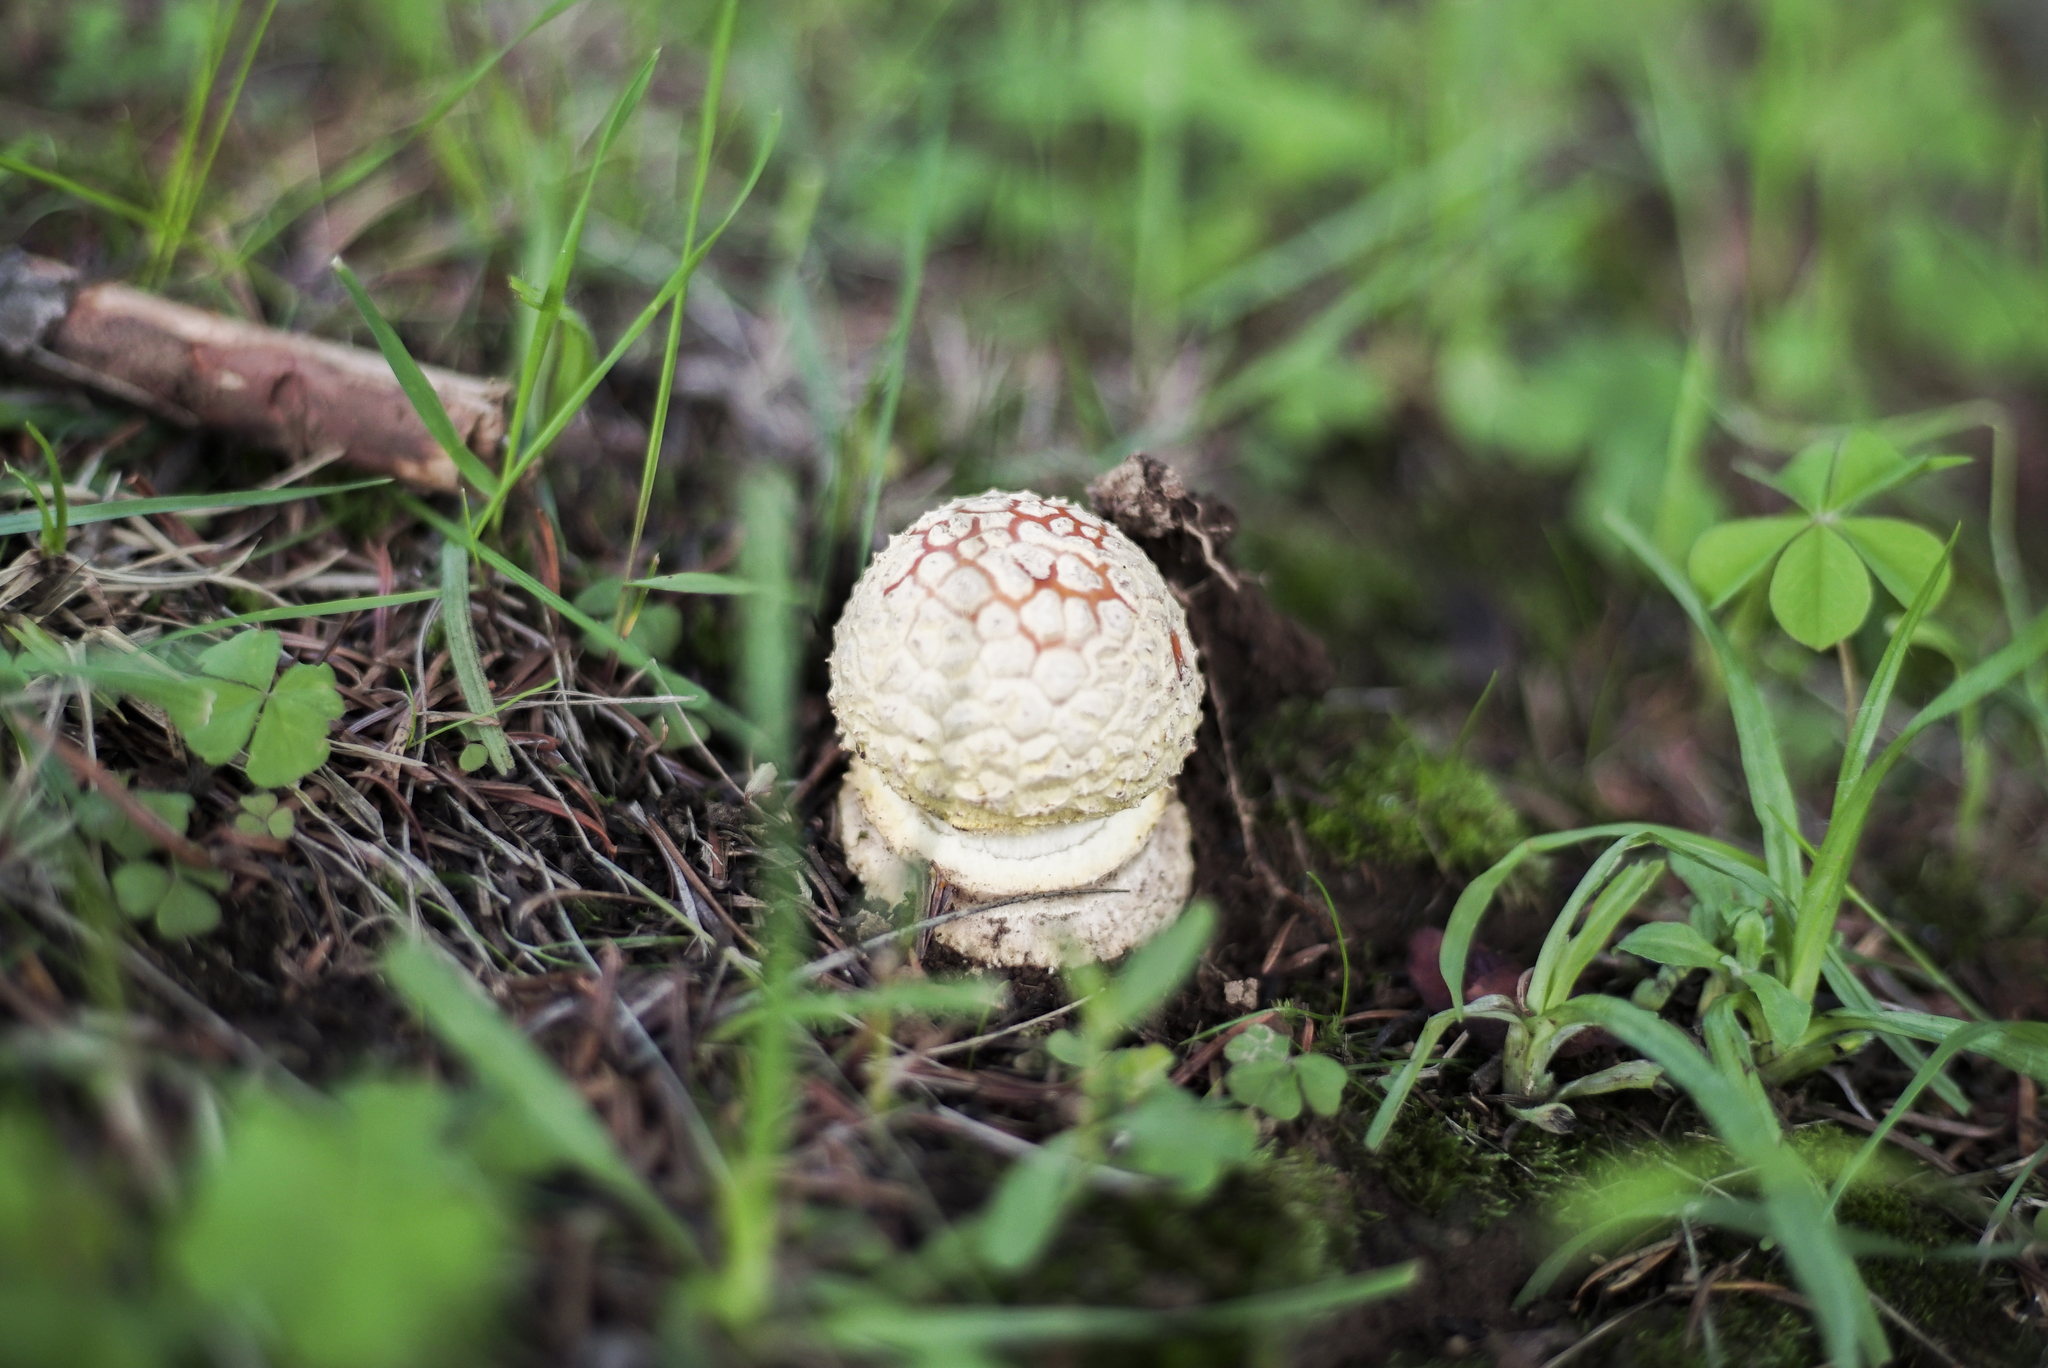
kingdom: Fungi
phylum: Basidiomycota
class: Agaricomycetes
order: Agaricales
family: Amanitaceae
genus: Amanita
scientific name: Amanita muscaria
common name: Fly agaric
